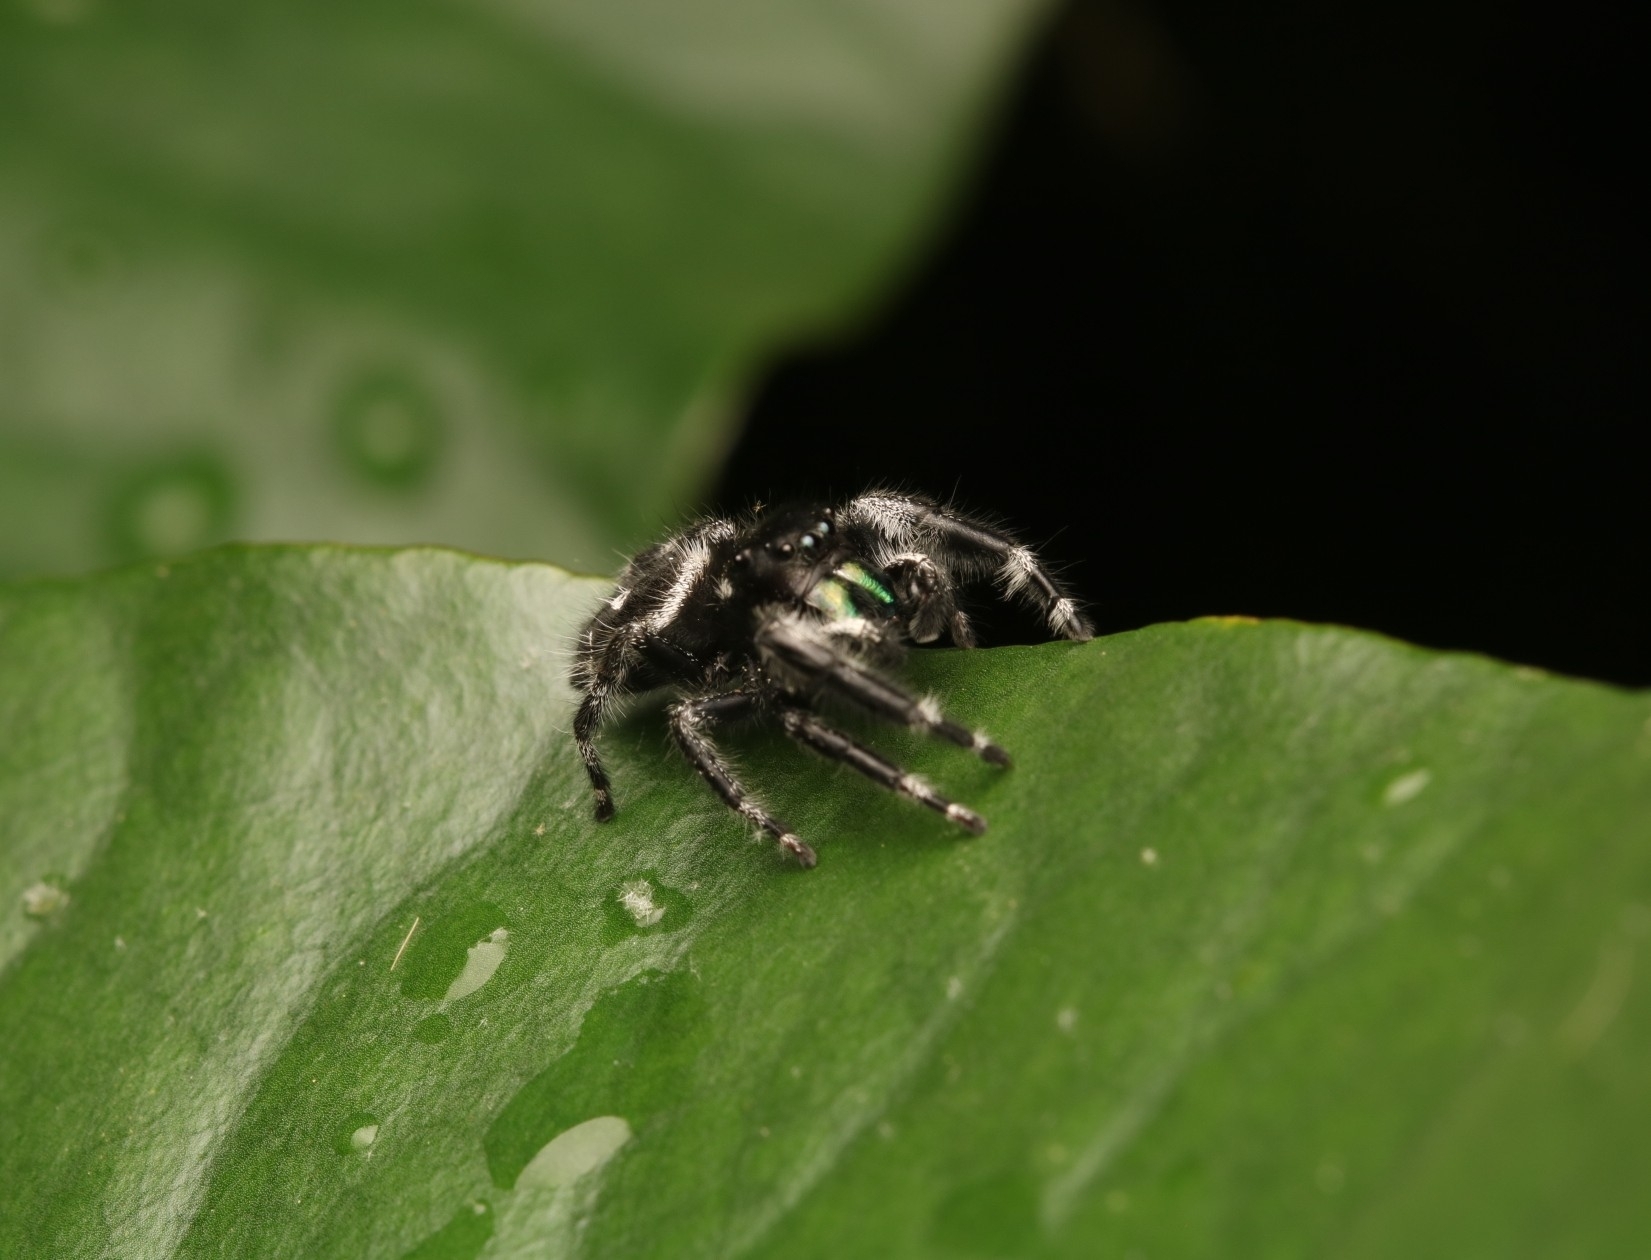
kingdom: Animalia
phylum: Arthropoda
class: Arachnida
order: Araneae
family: Salticidae
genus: Phidippus
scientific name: Phidippus audax
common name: Bold jumper
